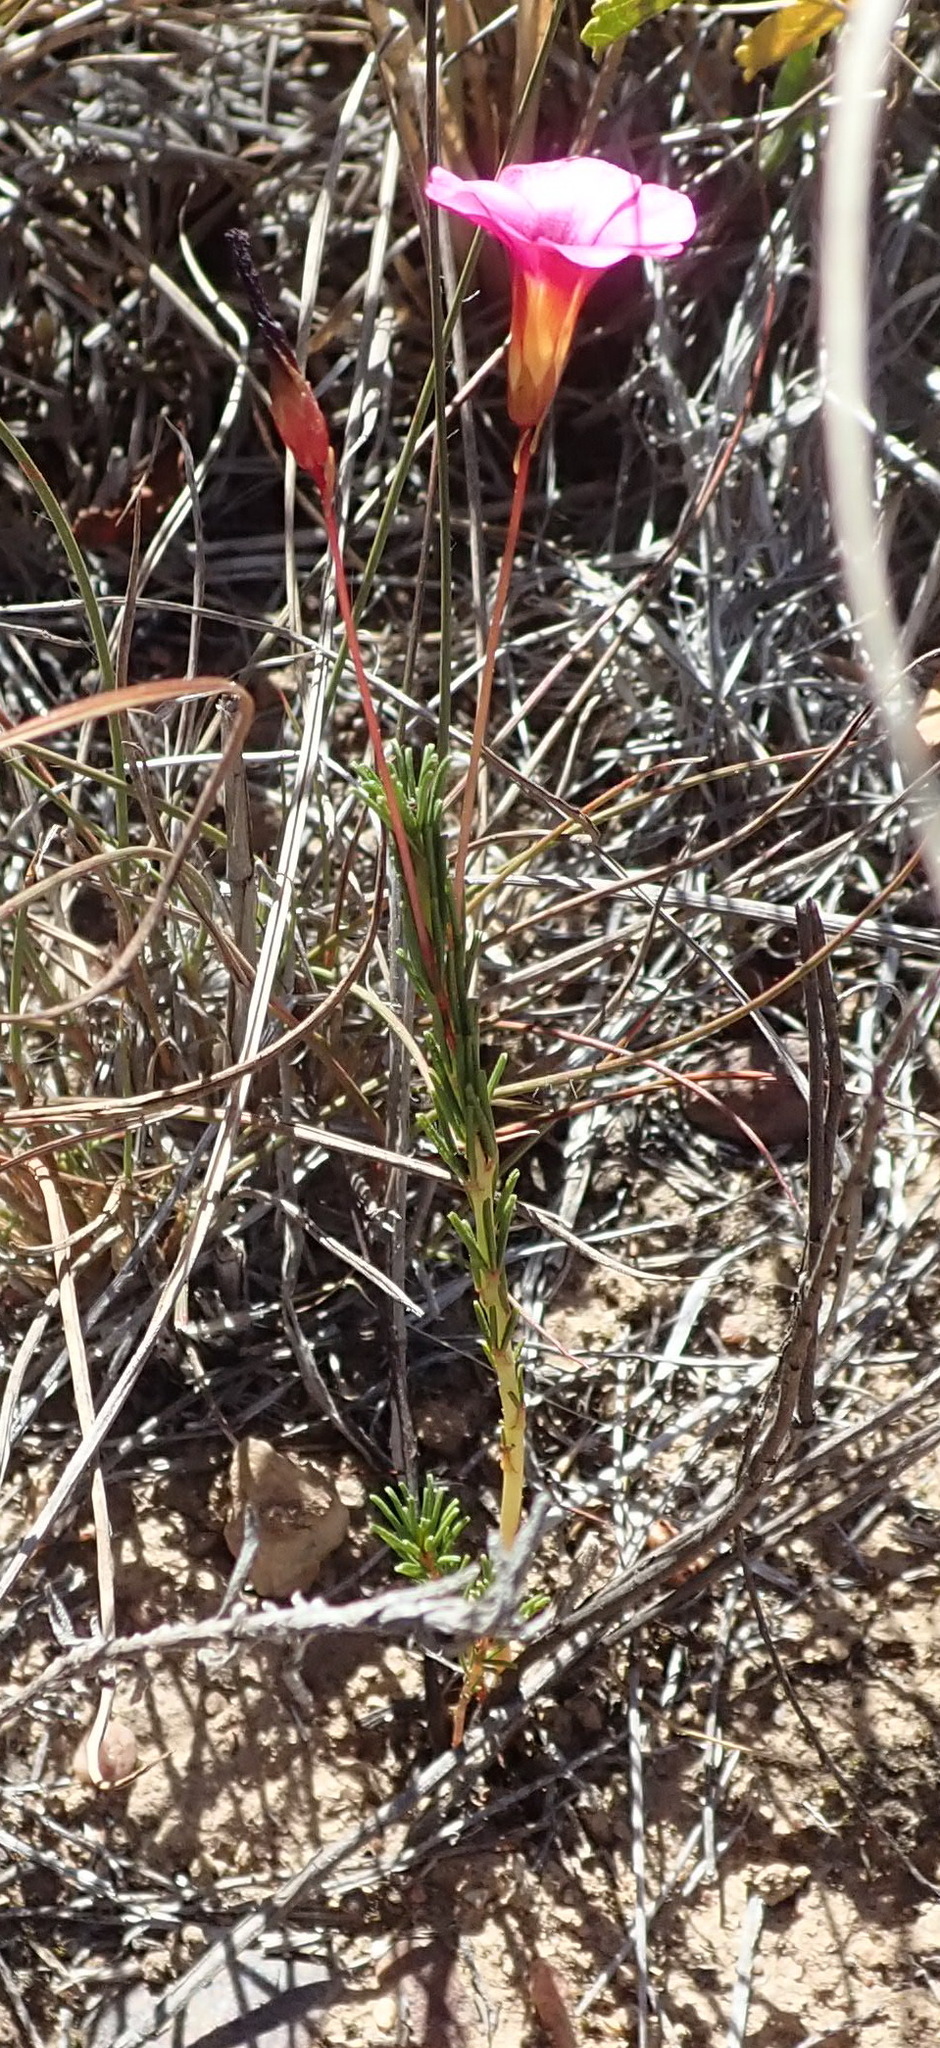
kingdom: Plantae
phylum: Tracheophyta
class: Magnoliopsida
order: Oxalidales
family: Oxalidaceae
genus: Oxalis
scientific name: Oxalis confertifolia
